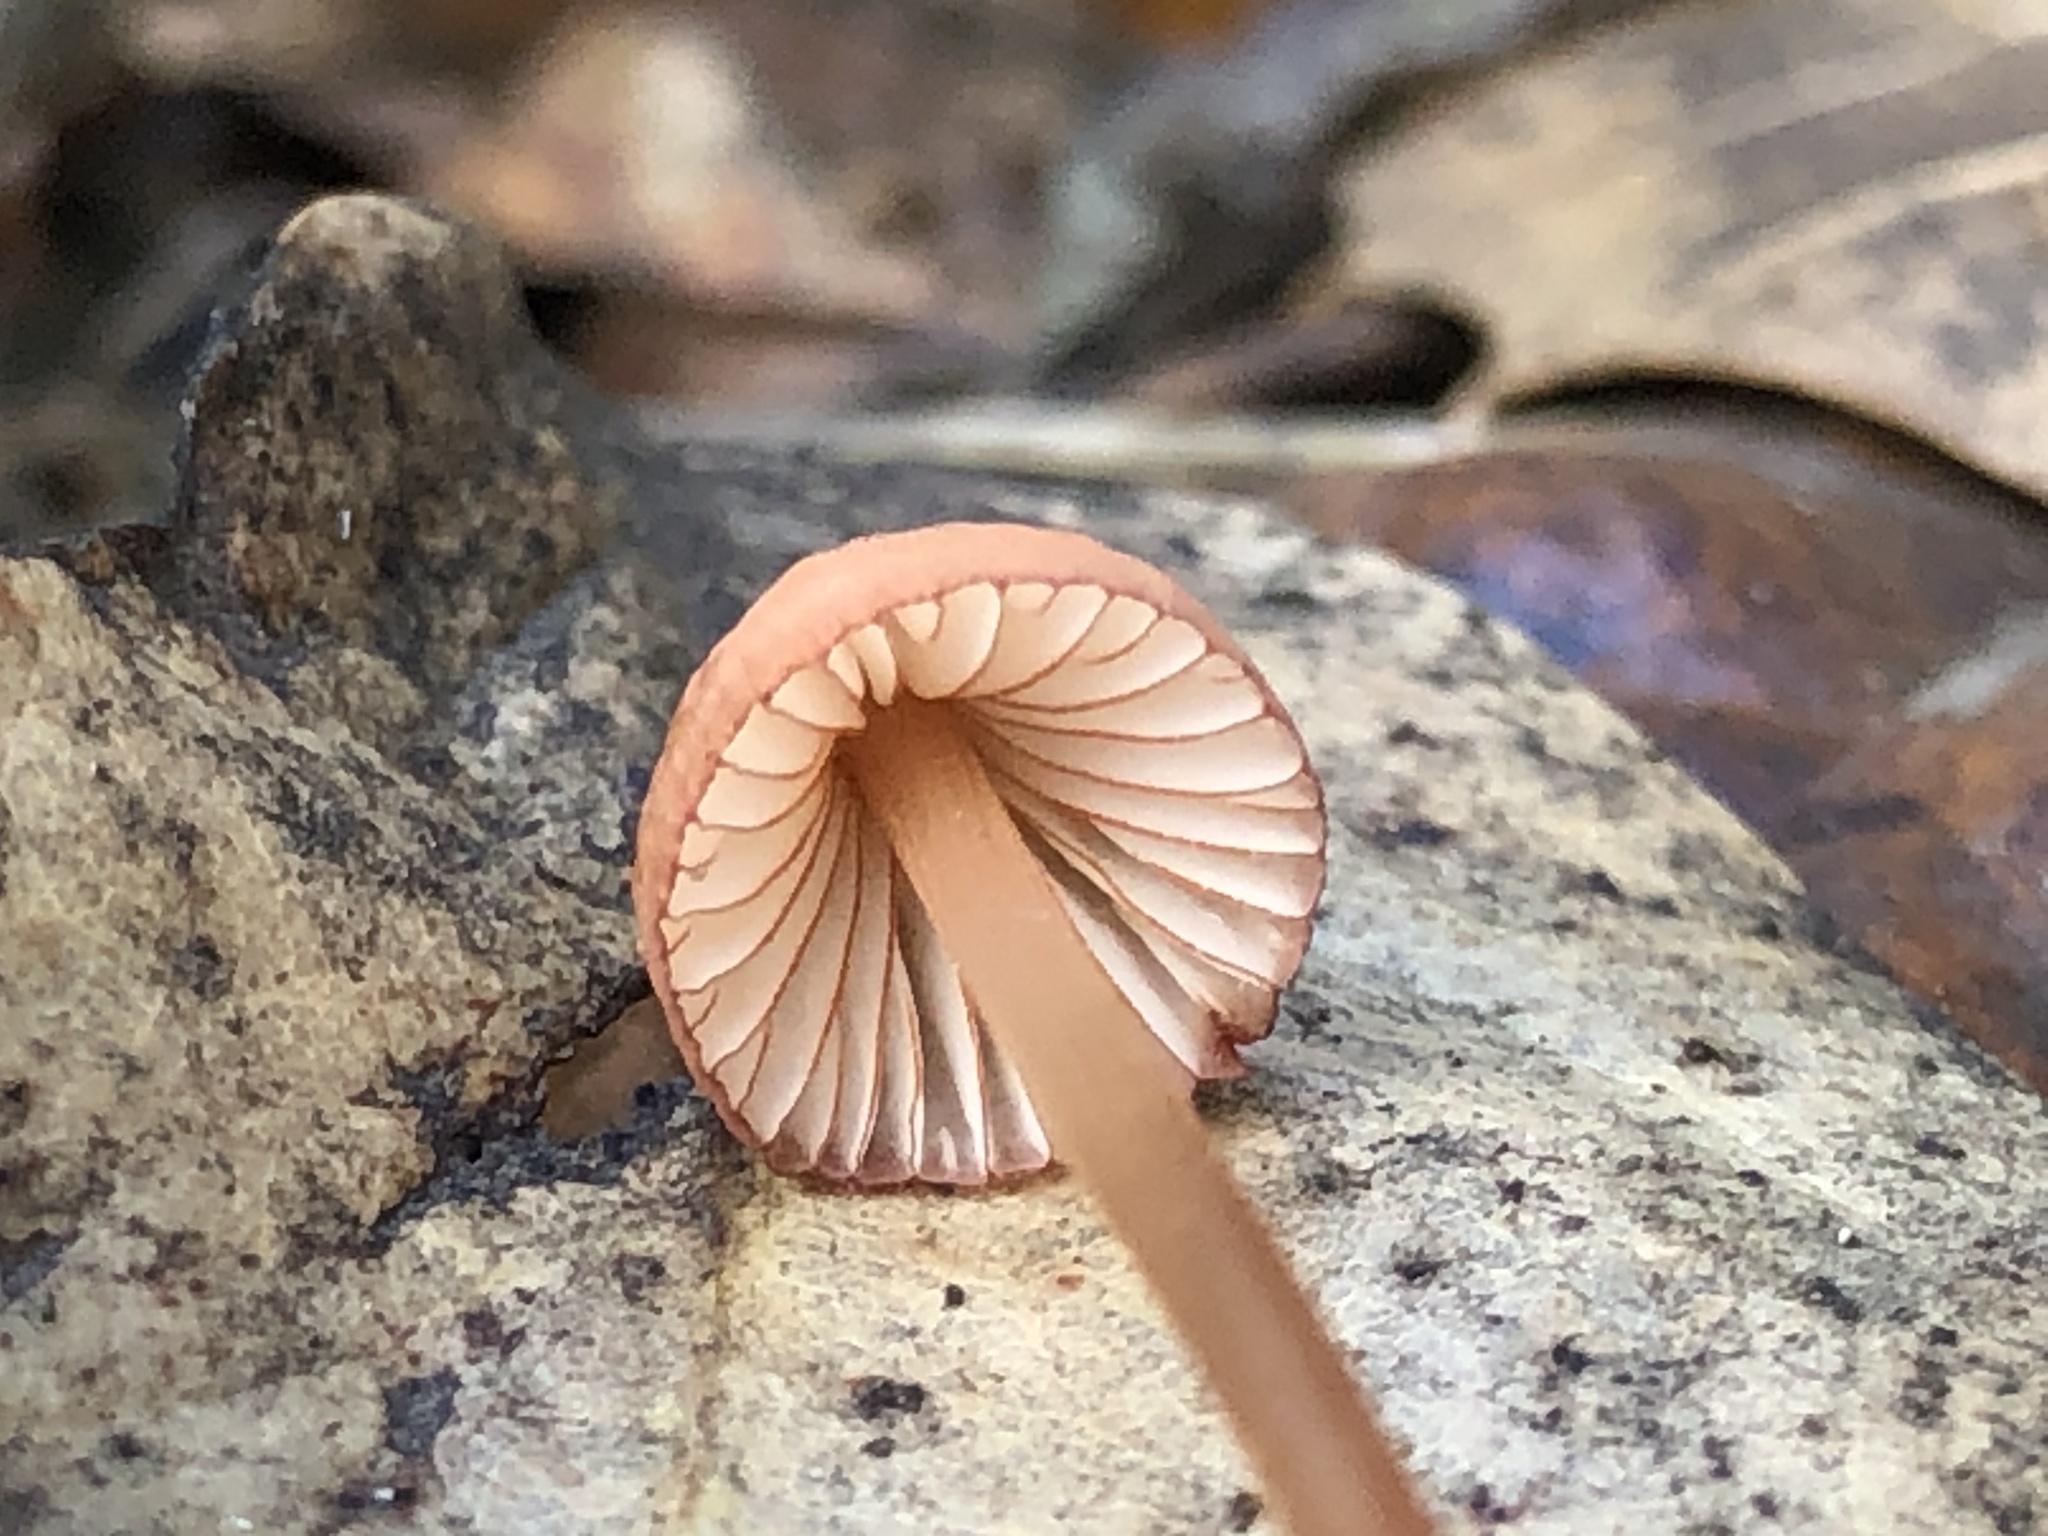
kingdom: Fungi
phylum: Basidiomycota
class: Agaricomycetes
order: Agaricales
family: Mycenaceae
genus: Mycena
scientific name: Mycena
